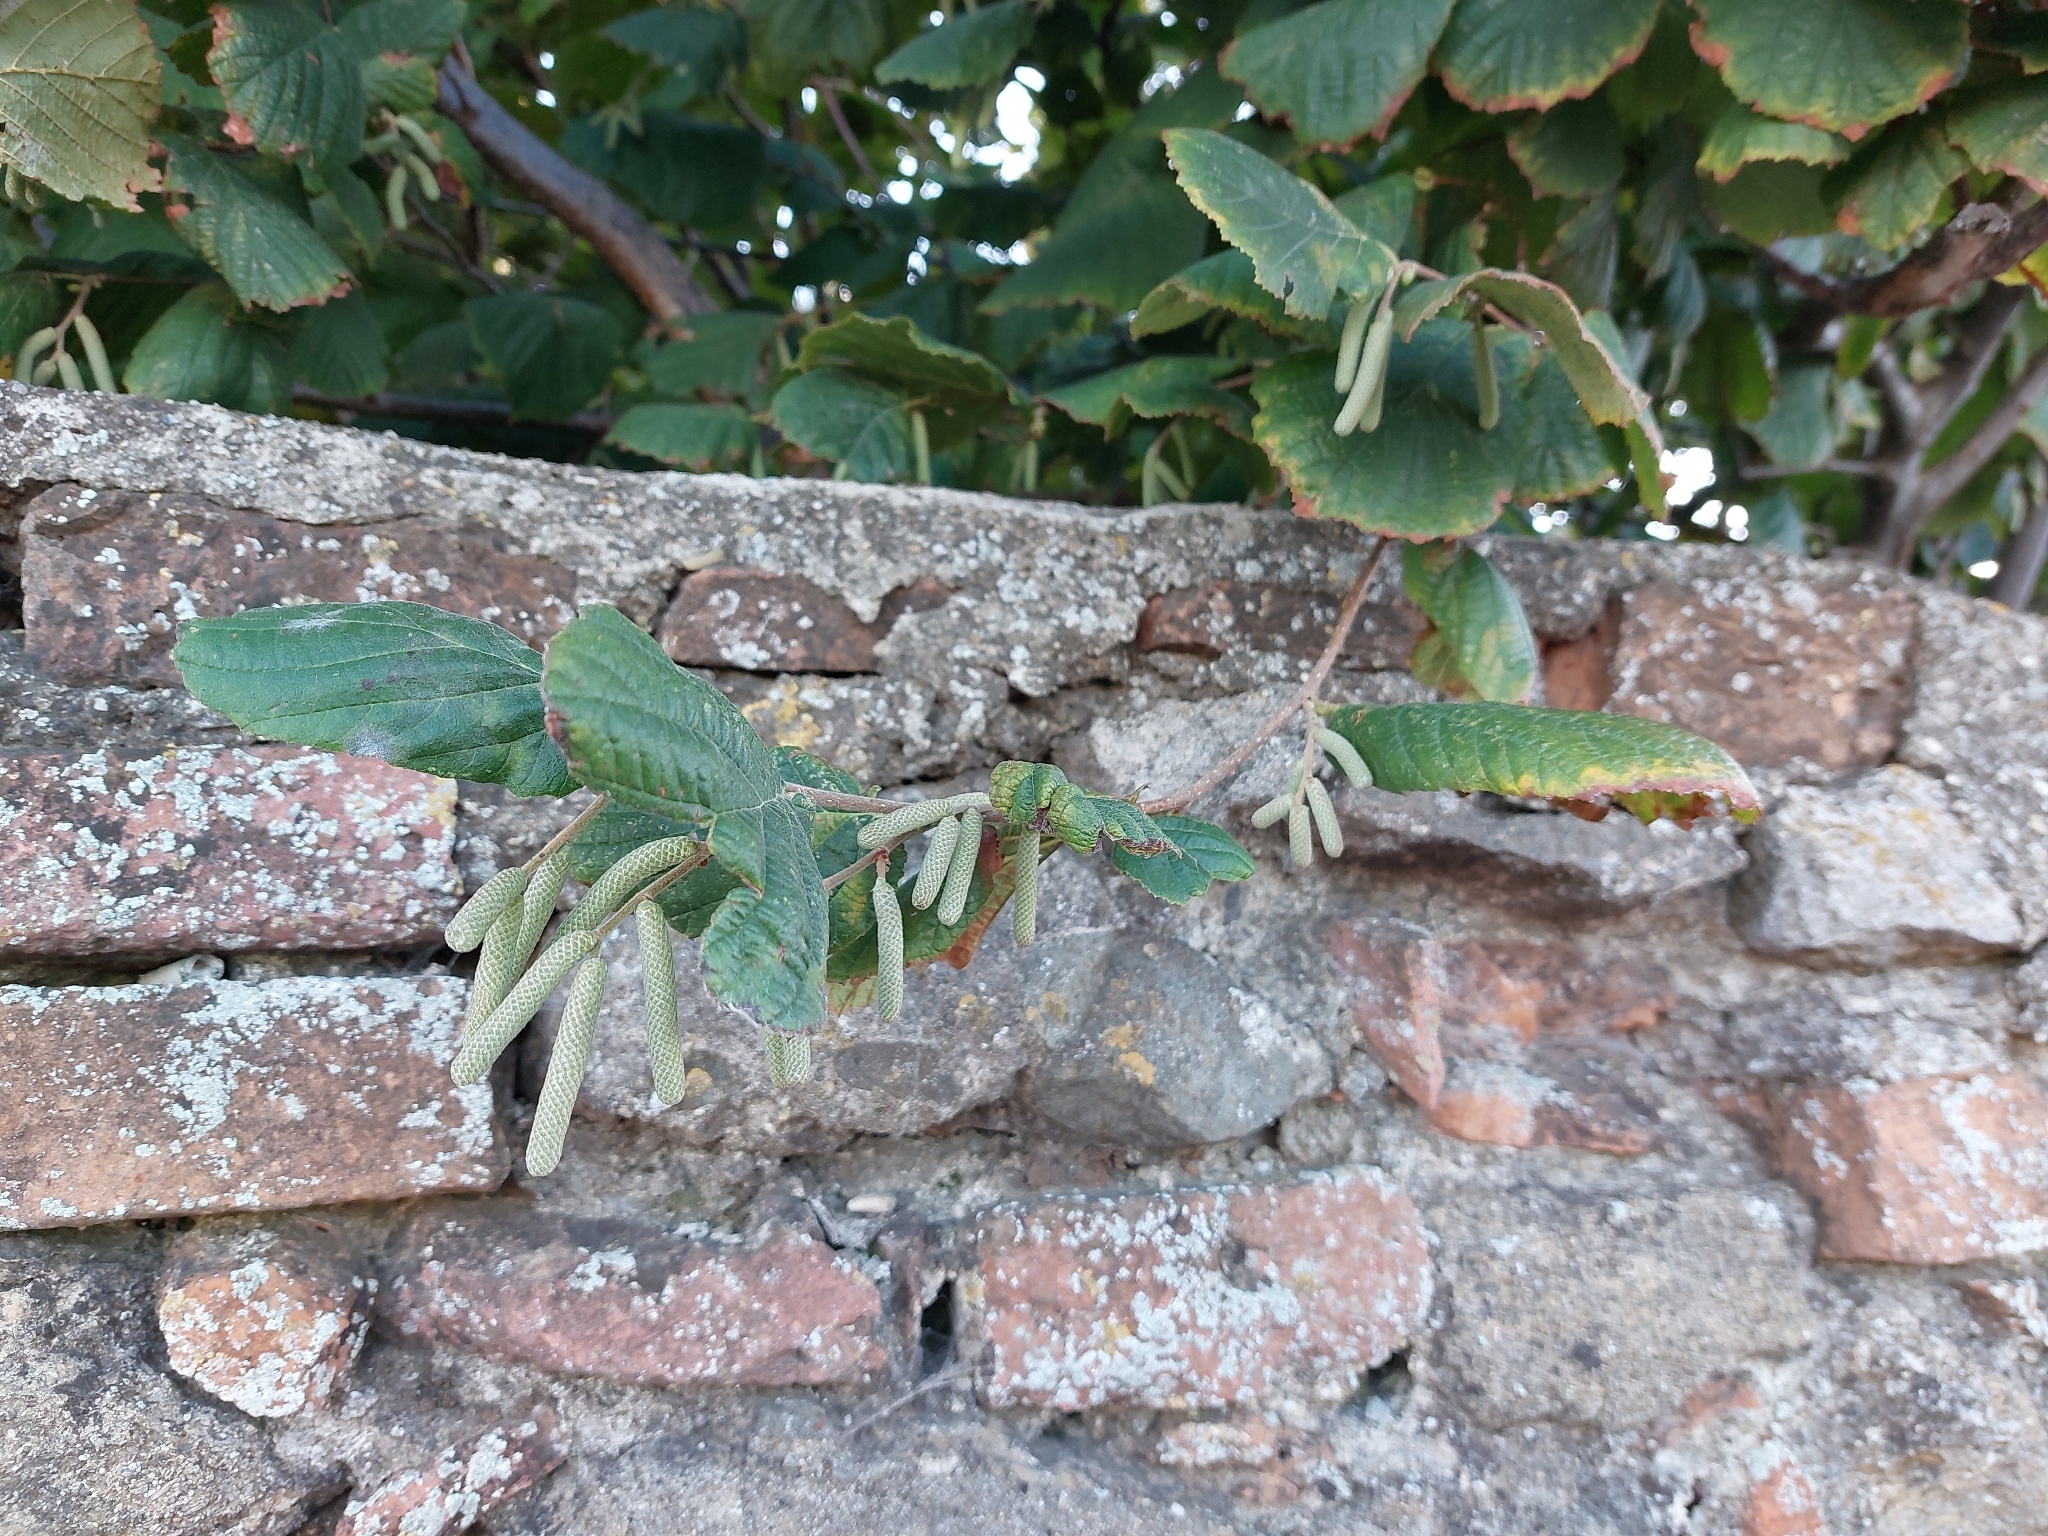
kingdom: Plantae
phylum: Tracheophyta
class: Magnoliopsida
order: Fagales
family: Betulaceae
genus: Corylus
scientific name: Corylus avellana
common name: European hazel
